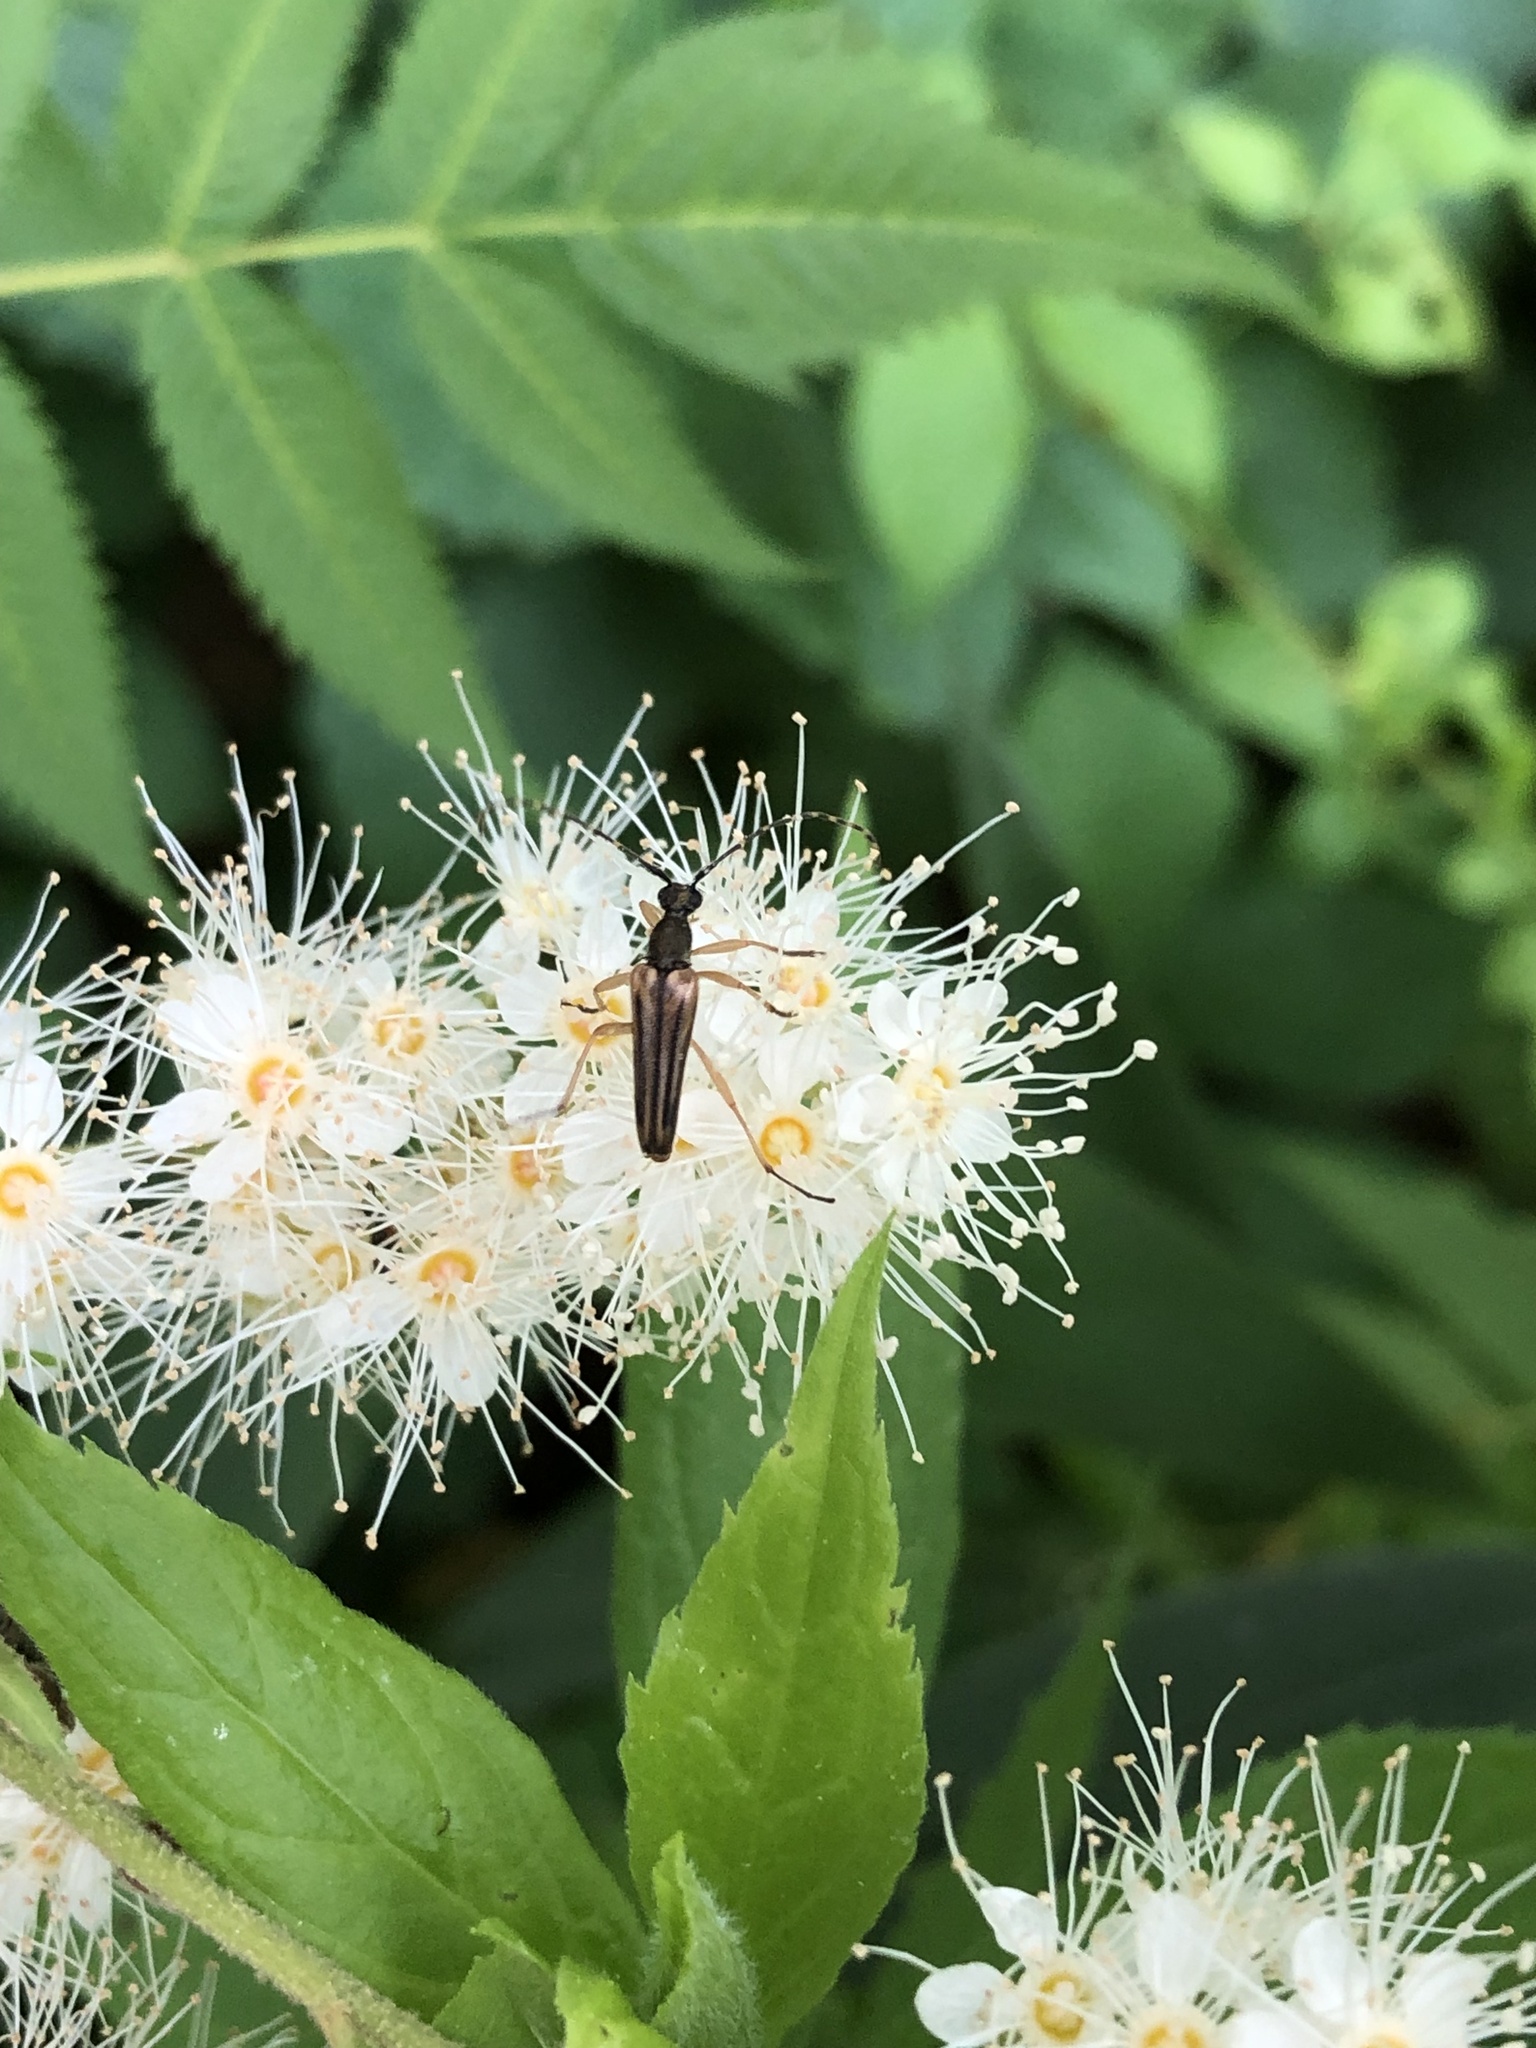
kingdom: Animalia
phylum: Arthropoda
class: Insecta
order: Coleoptera
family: Cerambycidae
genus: Analeptura
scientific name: Analeptura lineola
